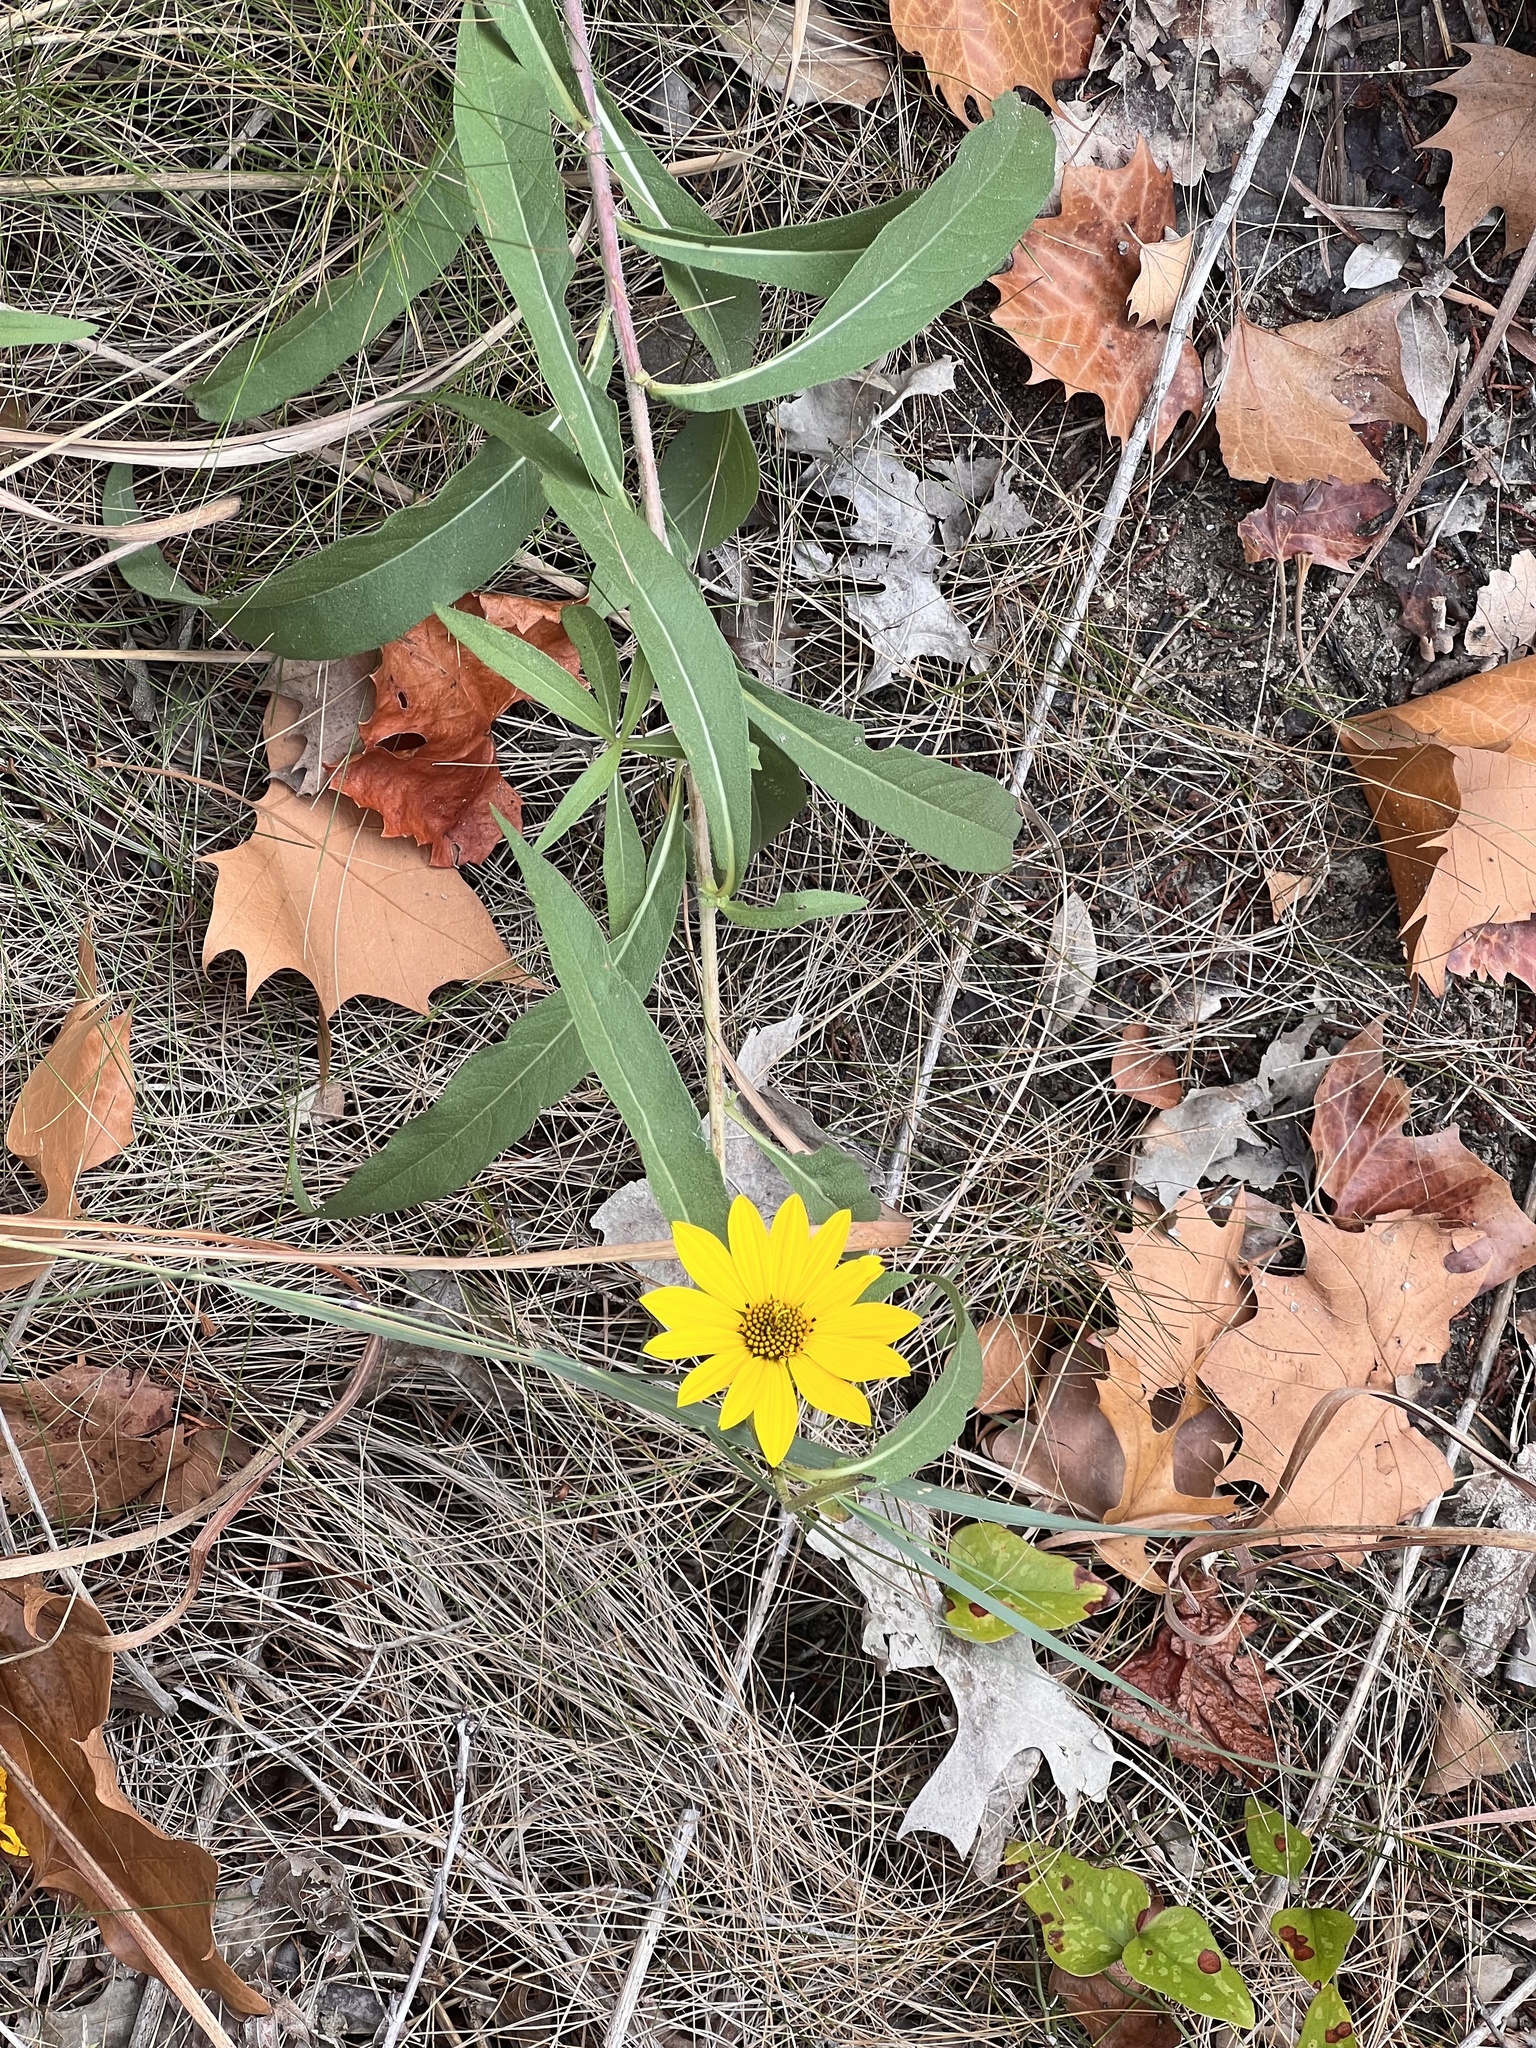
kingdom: Plantae
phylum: Tracheophyta
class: Magnoliopsida
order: Asterales
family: Asteraceae
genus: Helianthus
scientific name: Helianthus maximiliani
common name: Maximilian's sunflower
